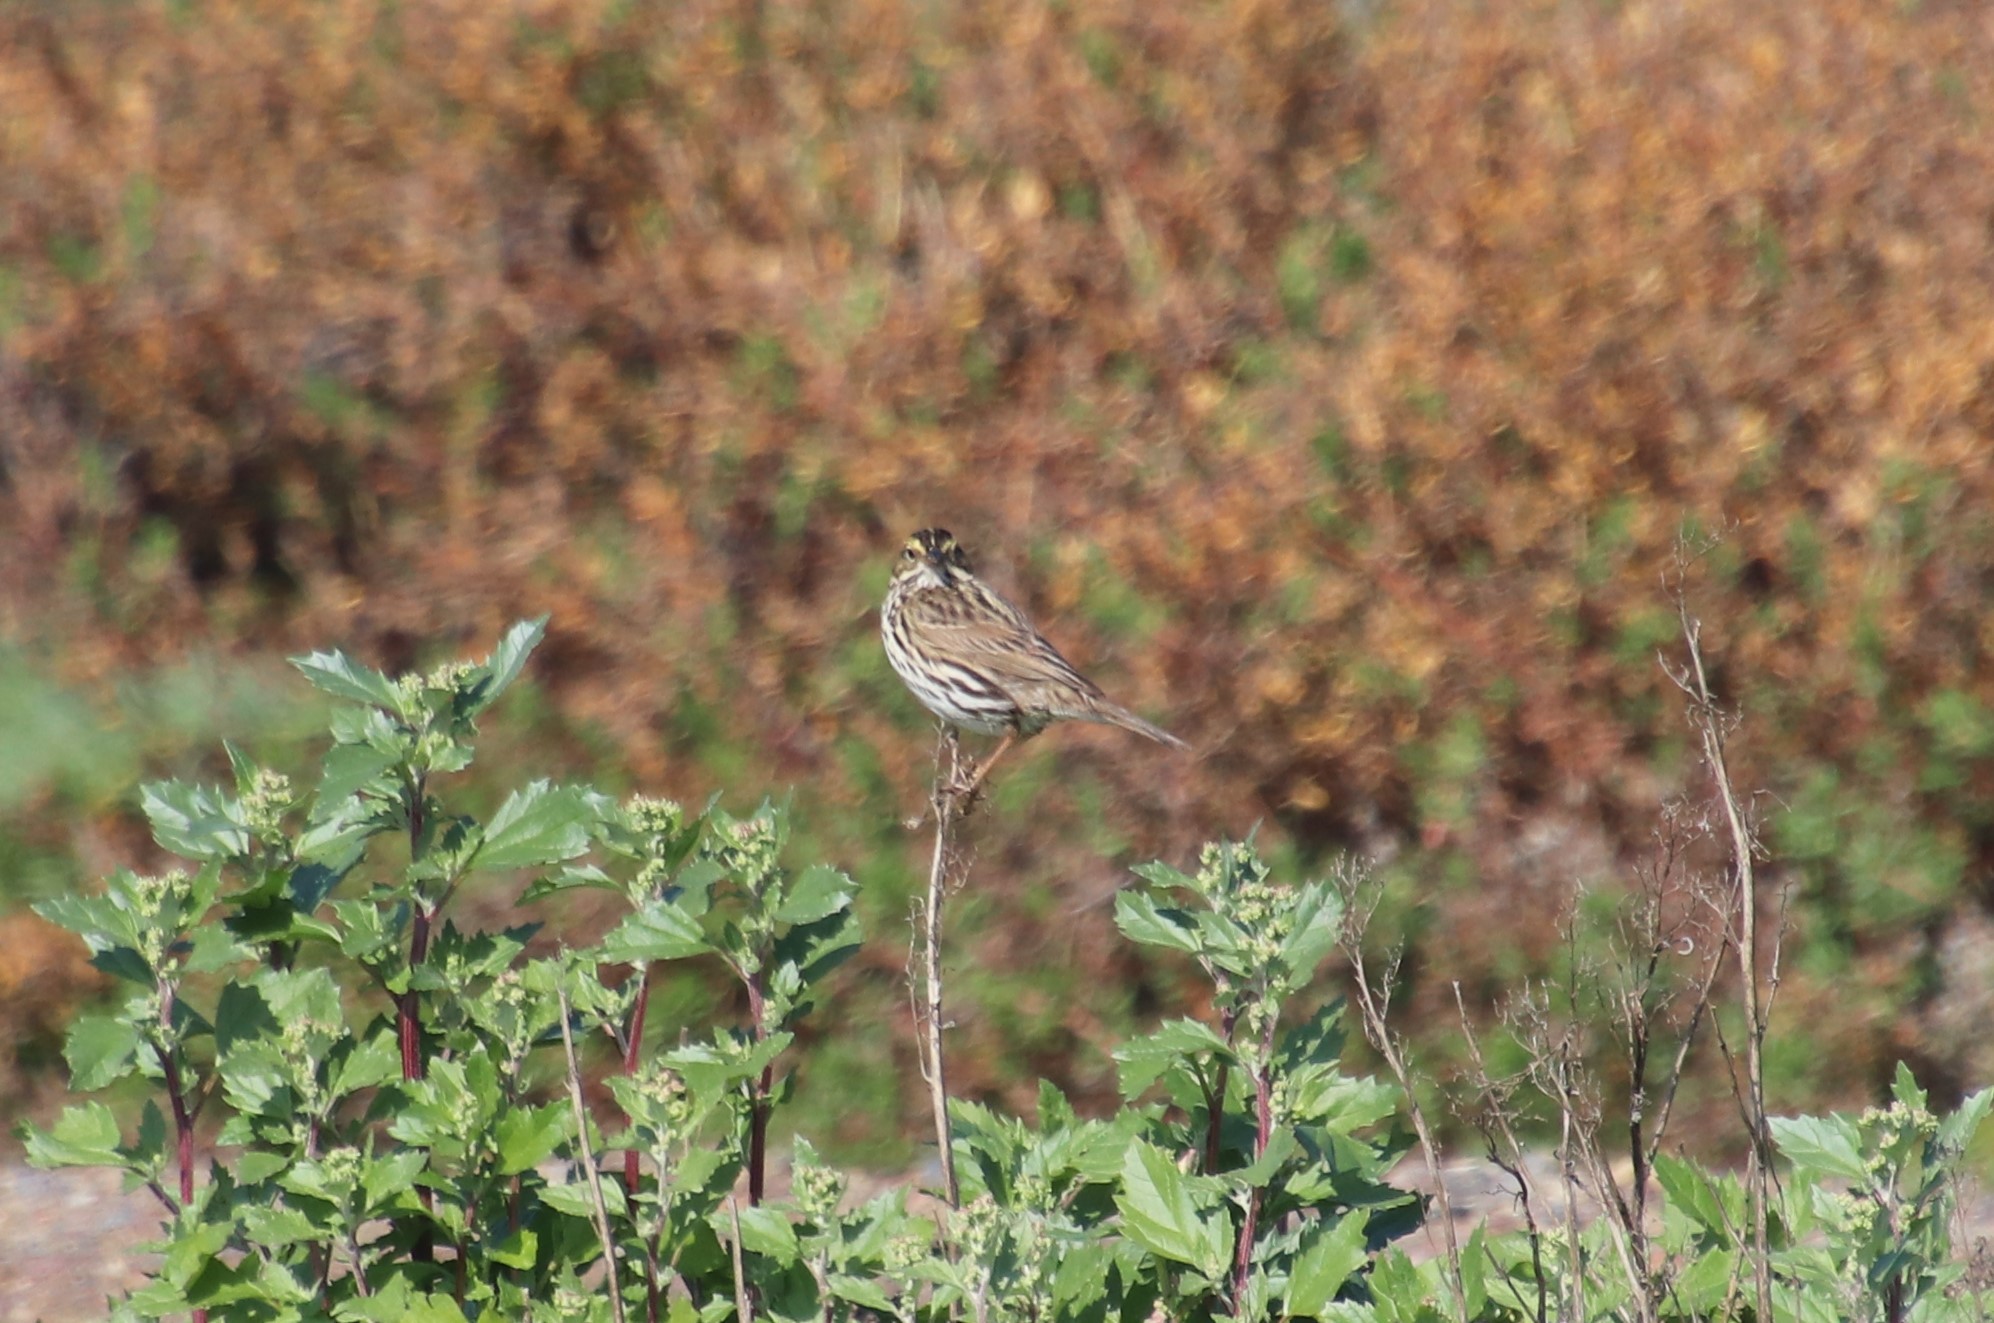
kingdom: Animalia
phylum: Chordata
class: Aves
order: Passeriformes
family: Passerellidae
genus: Passerculus
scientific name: Passerculus sandwichensis
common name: Savannah sparrow
